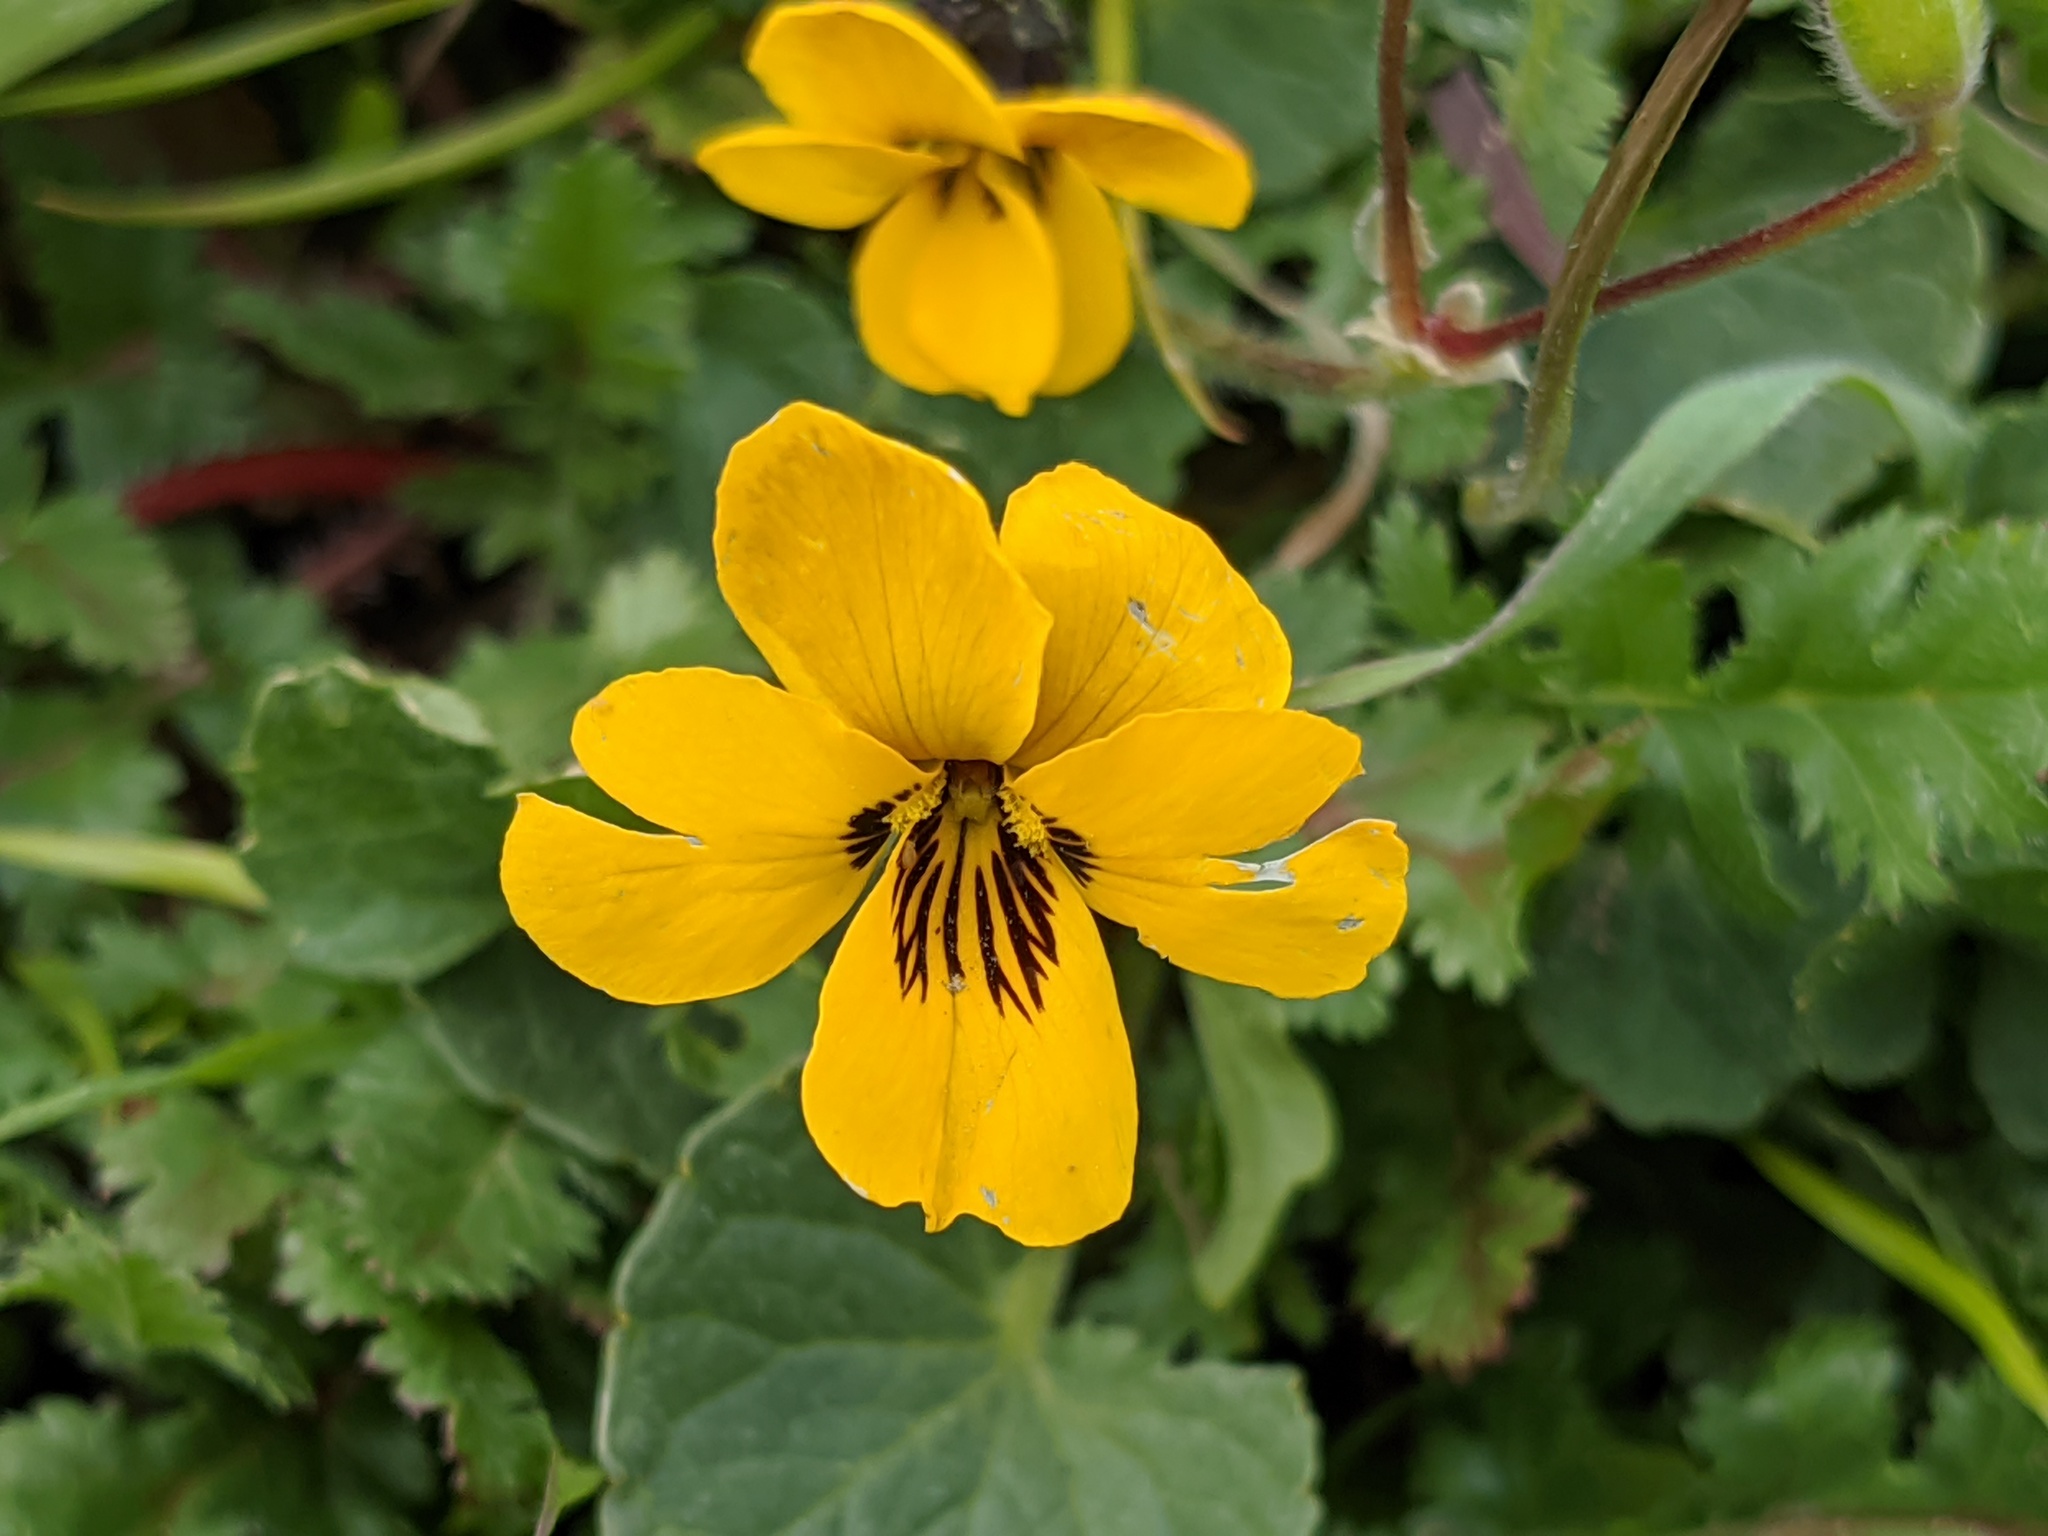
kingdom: Plantae
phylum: Tracheophyta
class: Magnoliopsida
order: Malpighiales
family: Violaceae
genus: Viola
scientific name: Viola pedunculata
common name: California golden violet
